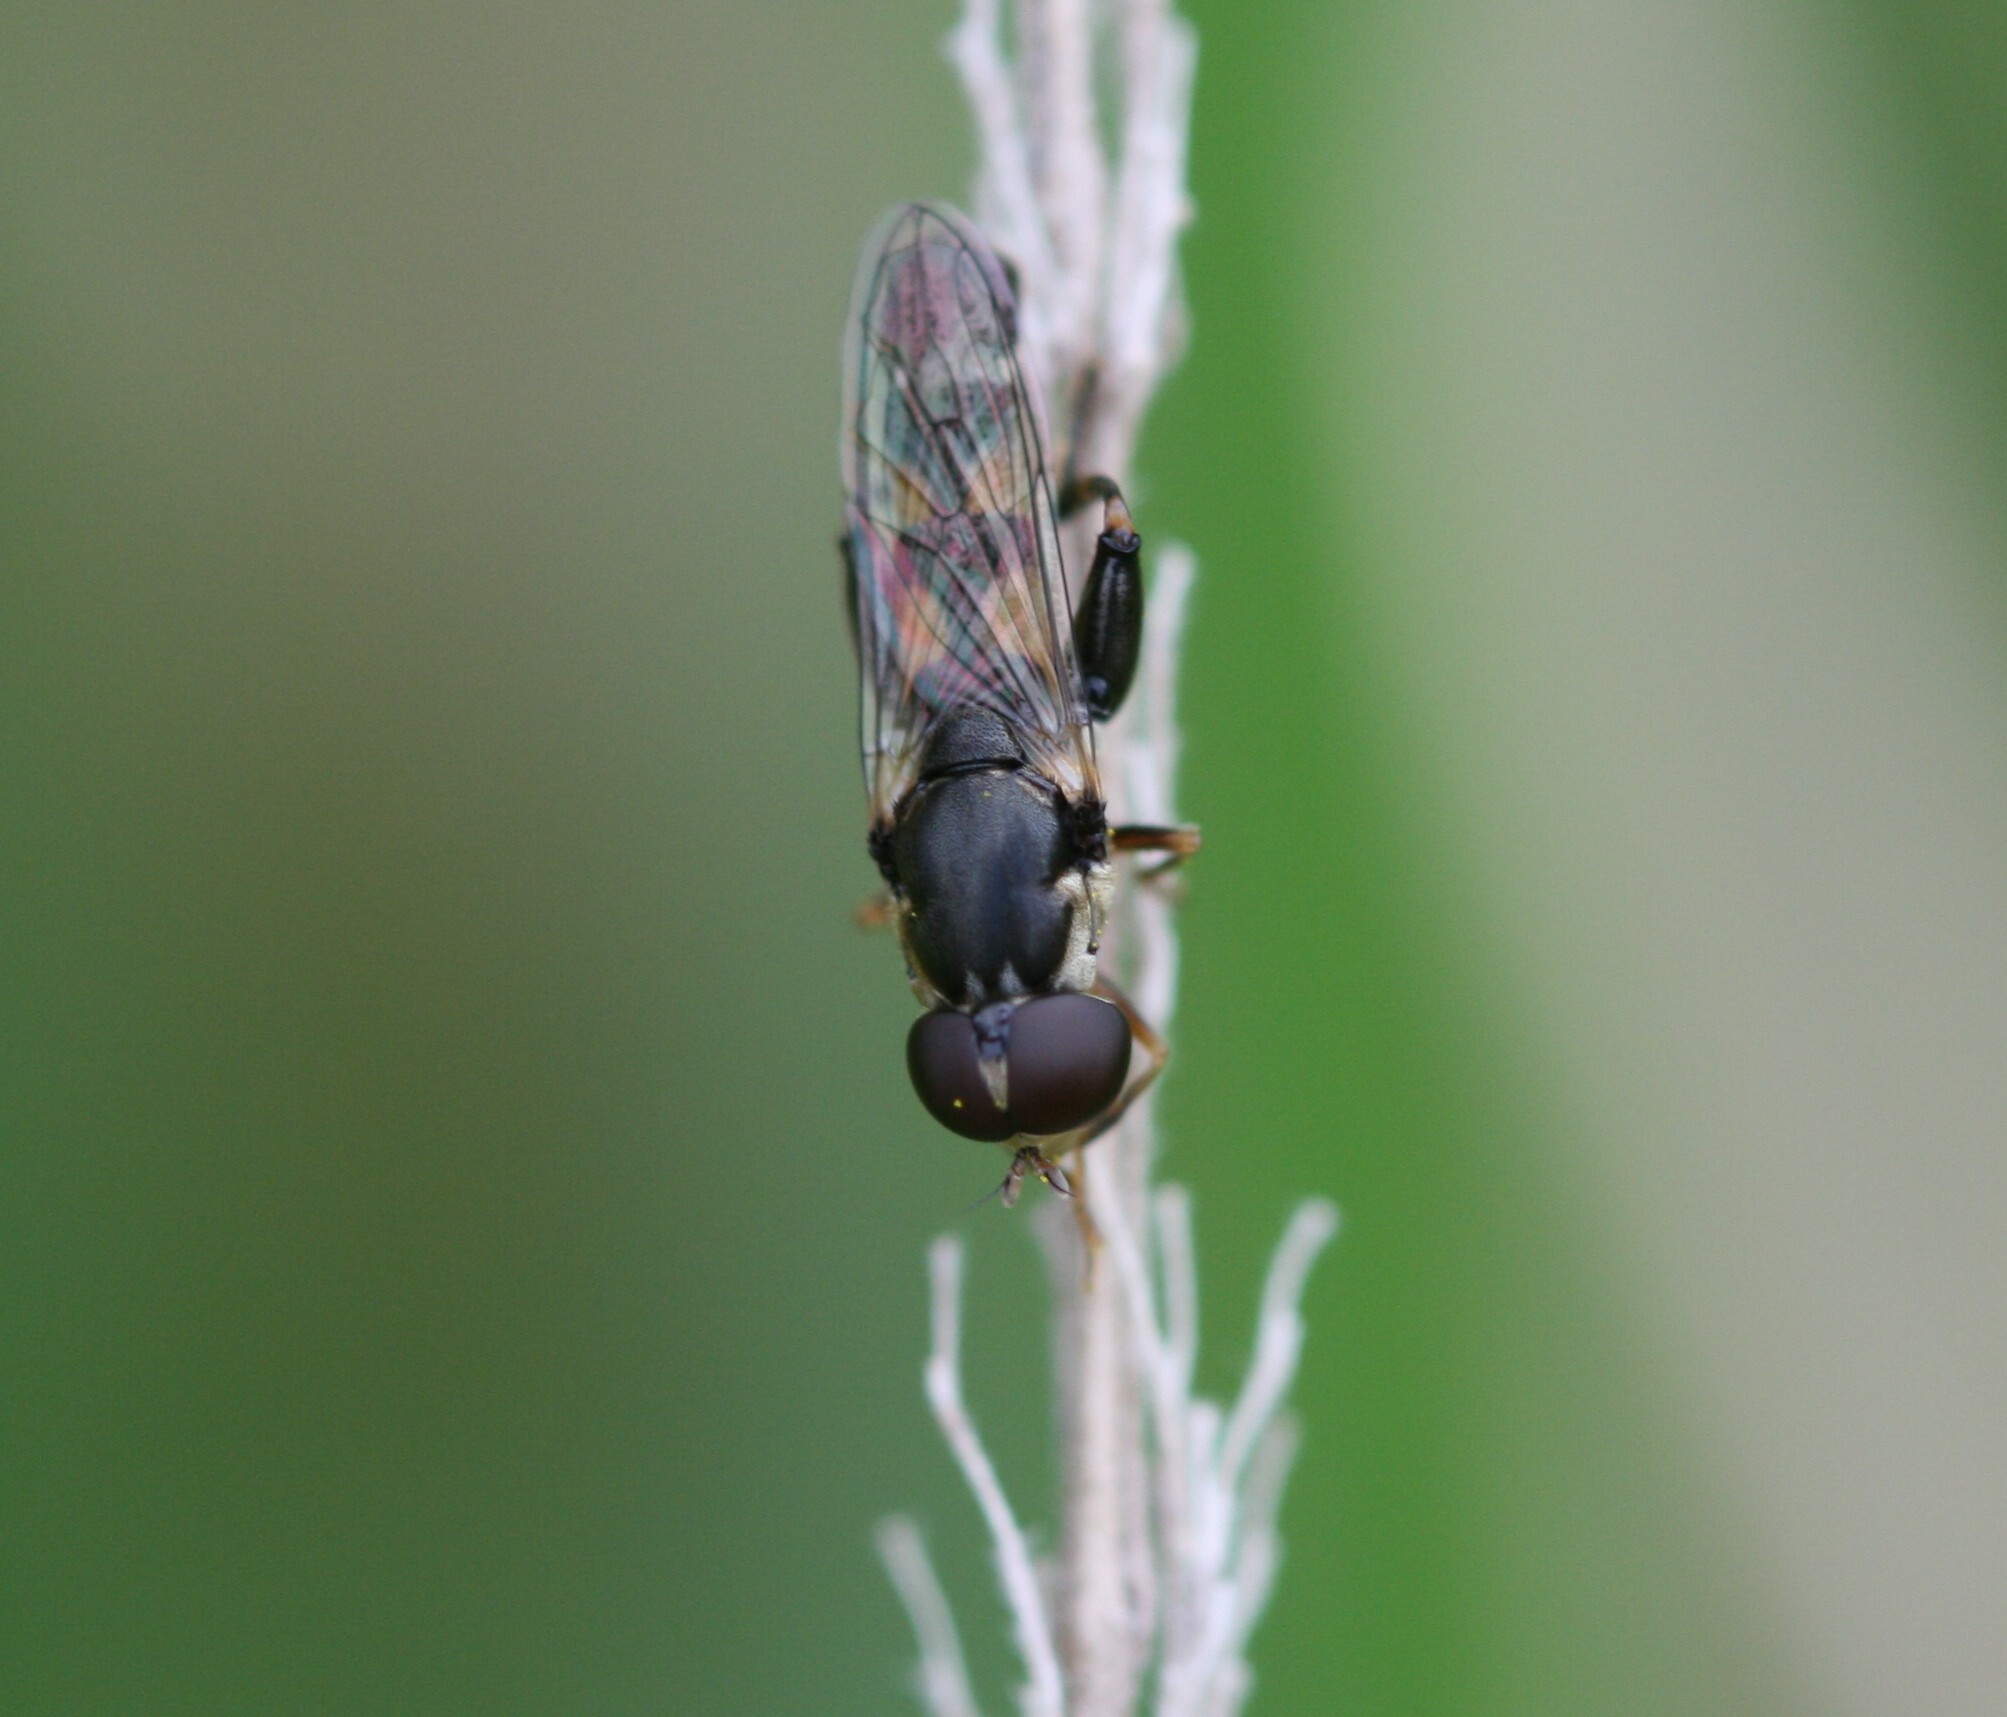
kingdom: Animalia
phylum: Arthropoda
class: Insecta
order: Diptera
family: Syrphidae
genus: Syritta
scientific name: Syritta pipiens
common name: Hover fly
